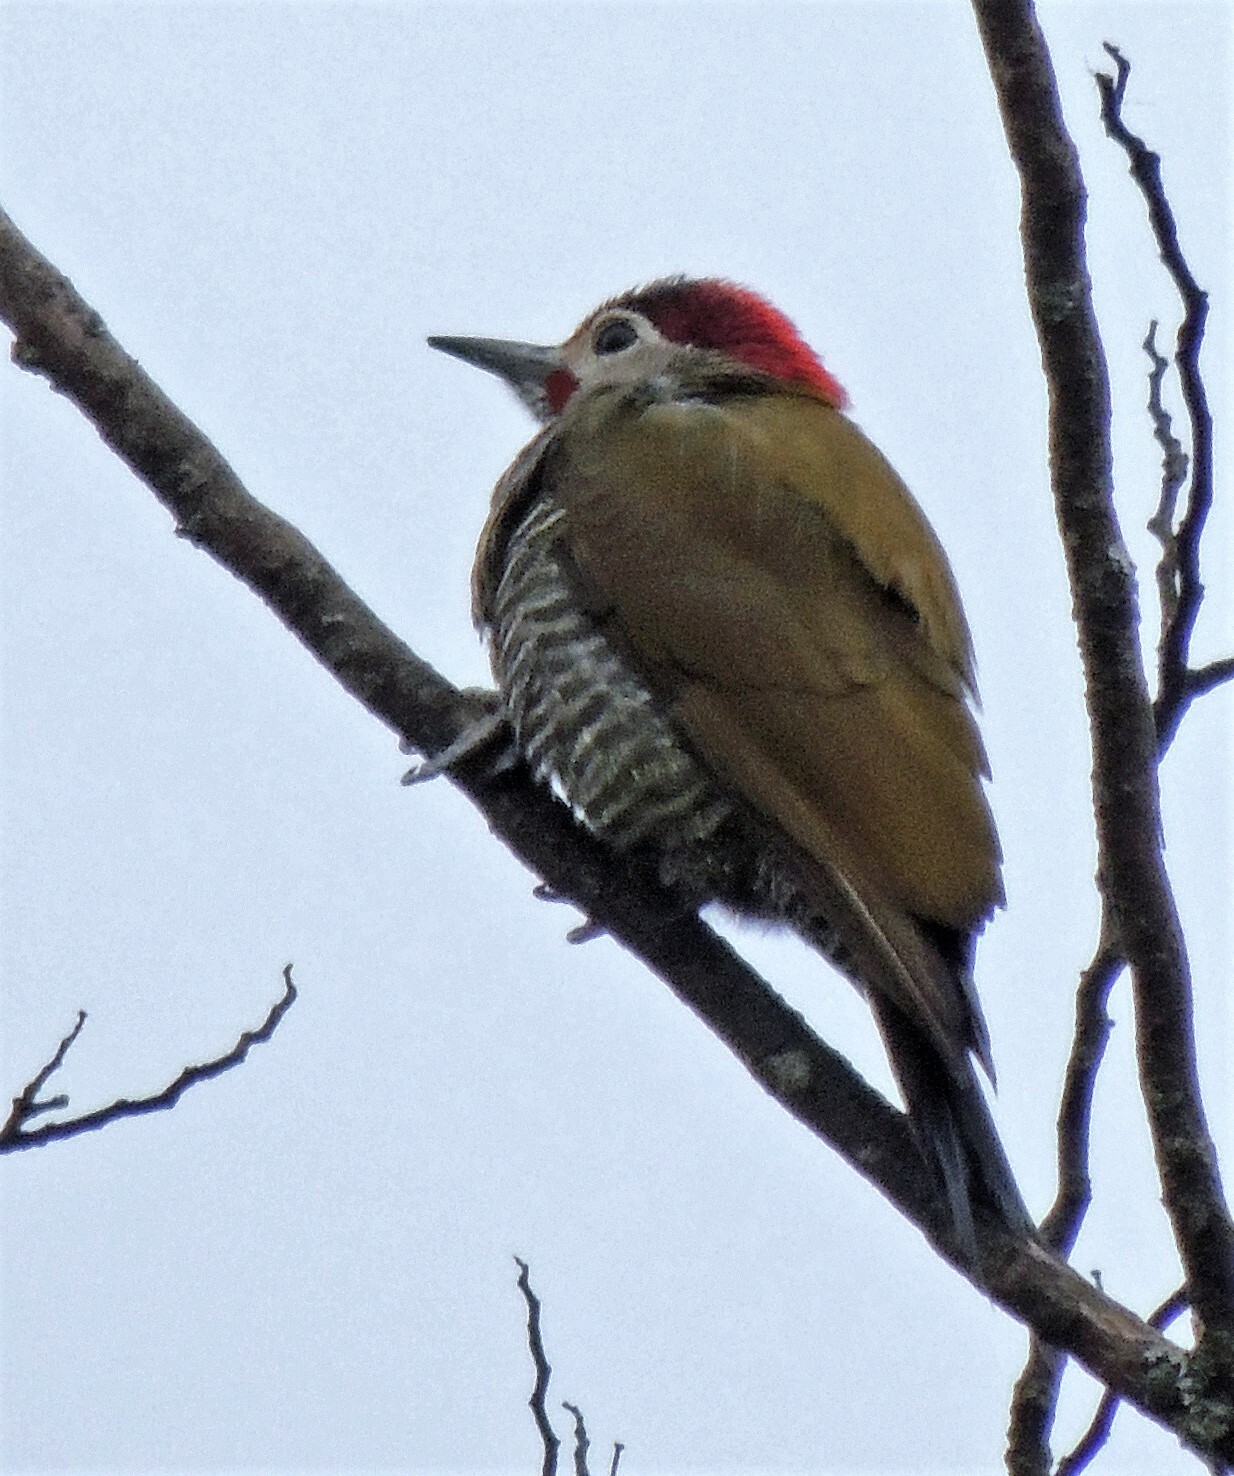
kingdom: Animalia
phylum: Chordata
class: Aves
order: Piciformes
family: Picidae
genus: Colaptes
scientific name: Colaptes rubiginosus
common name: Golden-olive woodpecker
